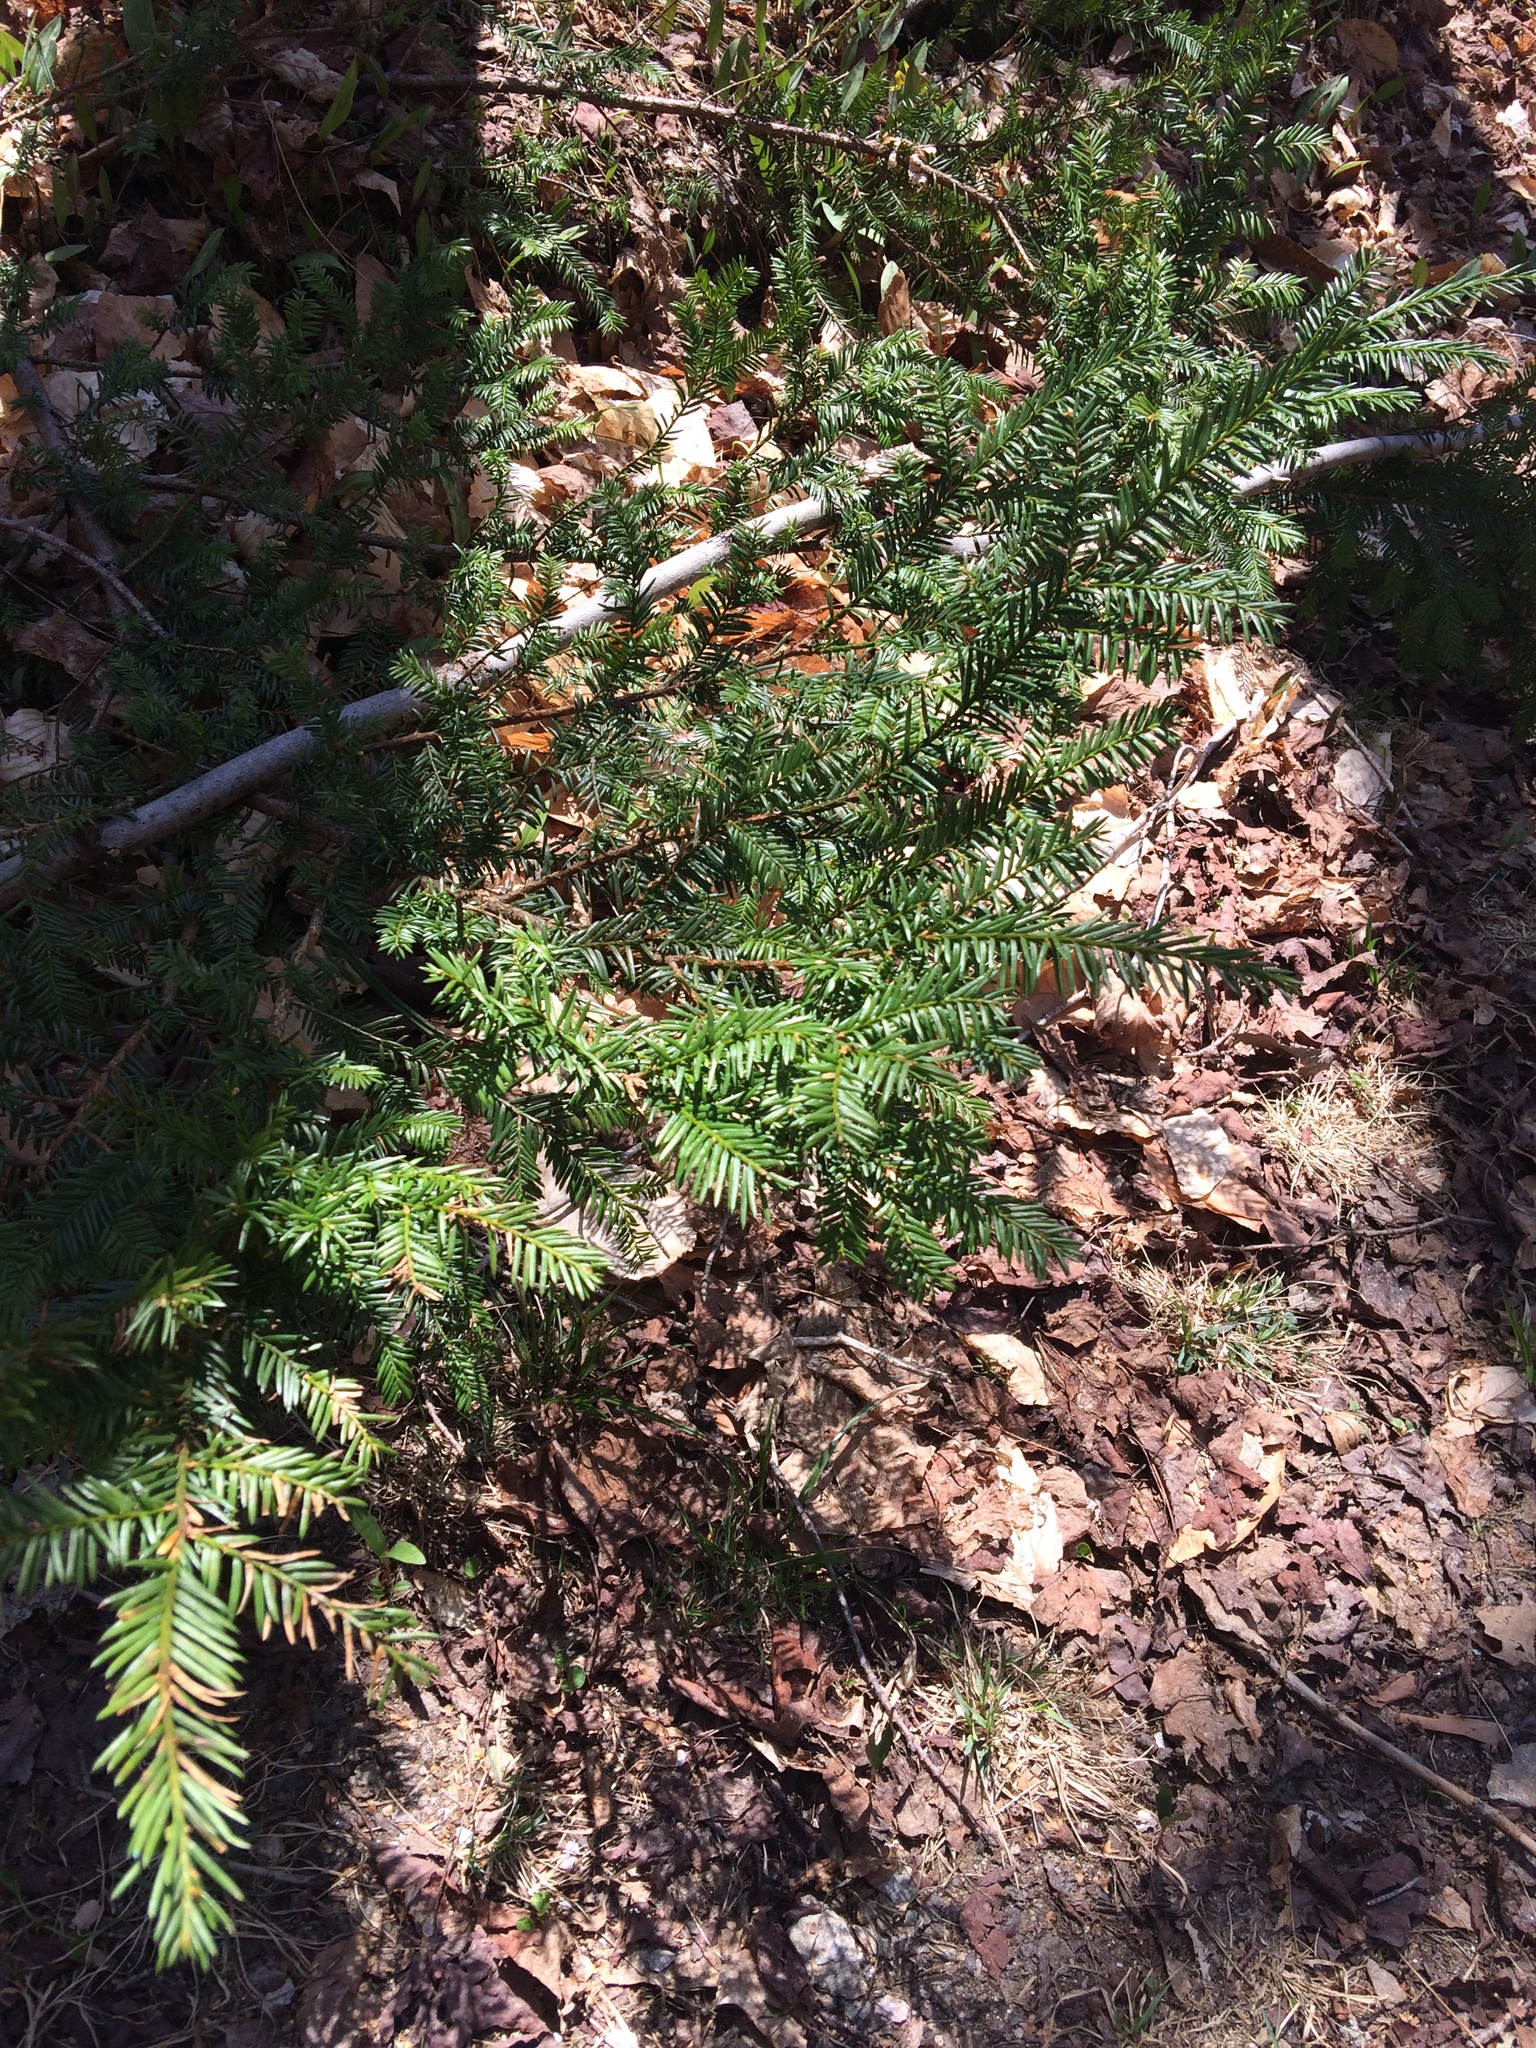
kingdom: Plantae
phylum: Tracheophyta
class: Pinopsida
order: Pinales
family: Taxaceae
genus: Taxus
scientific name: Taxus canadensis
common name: American yew
